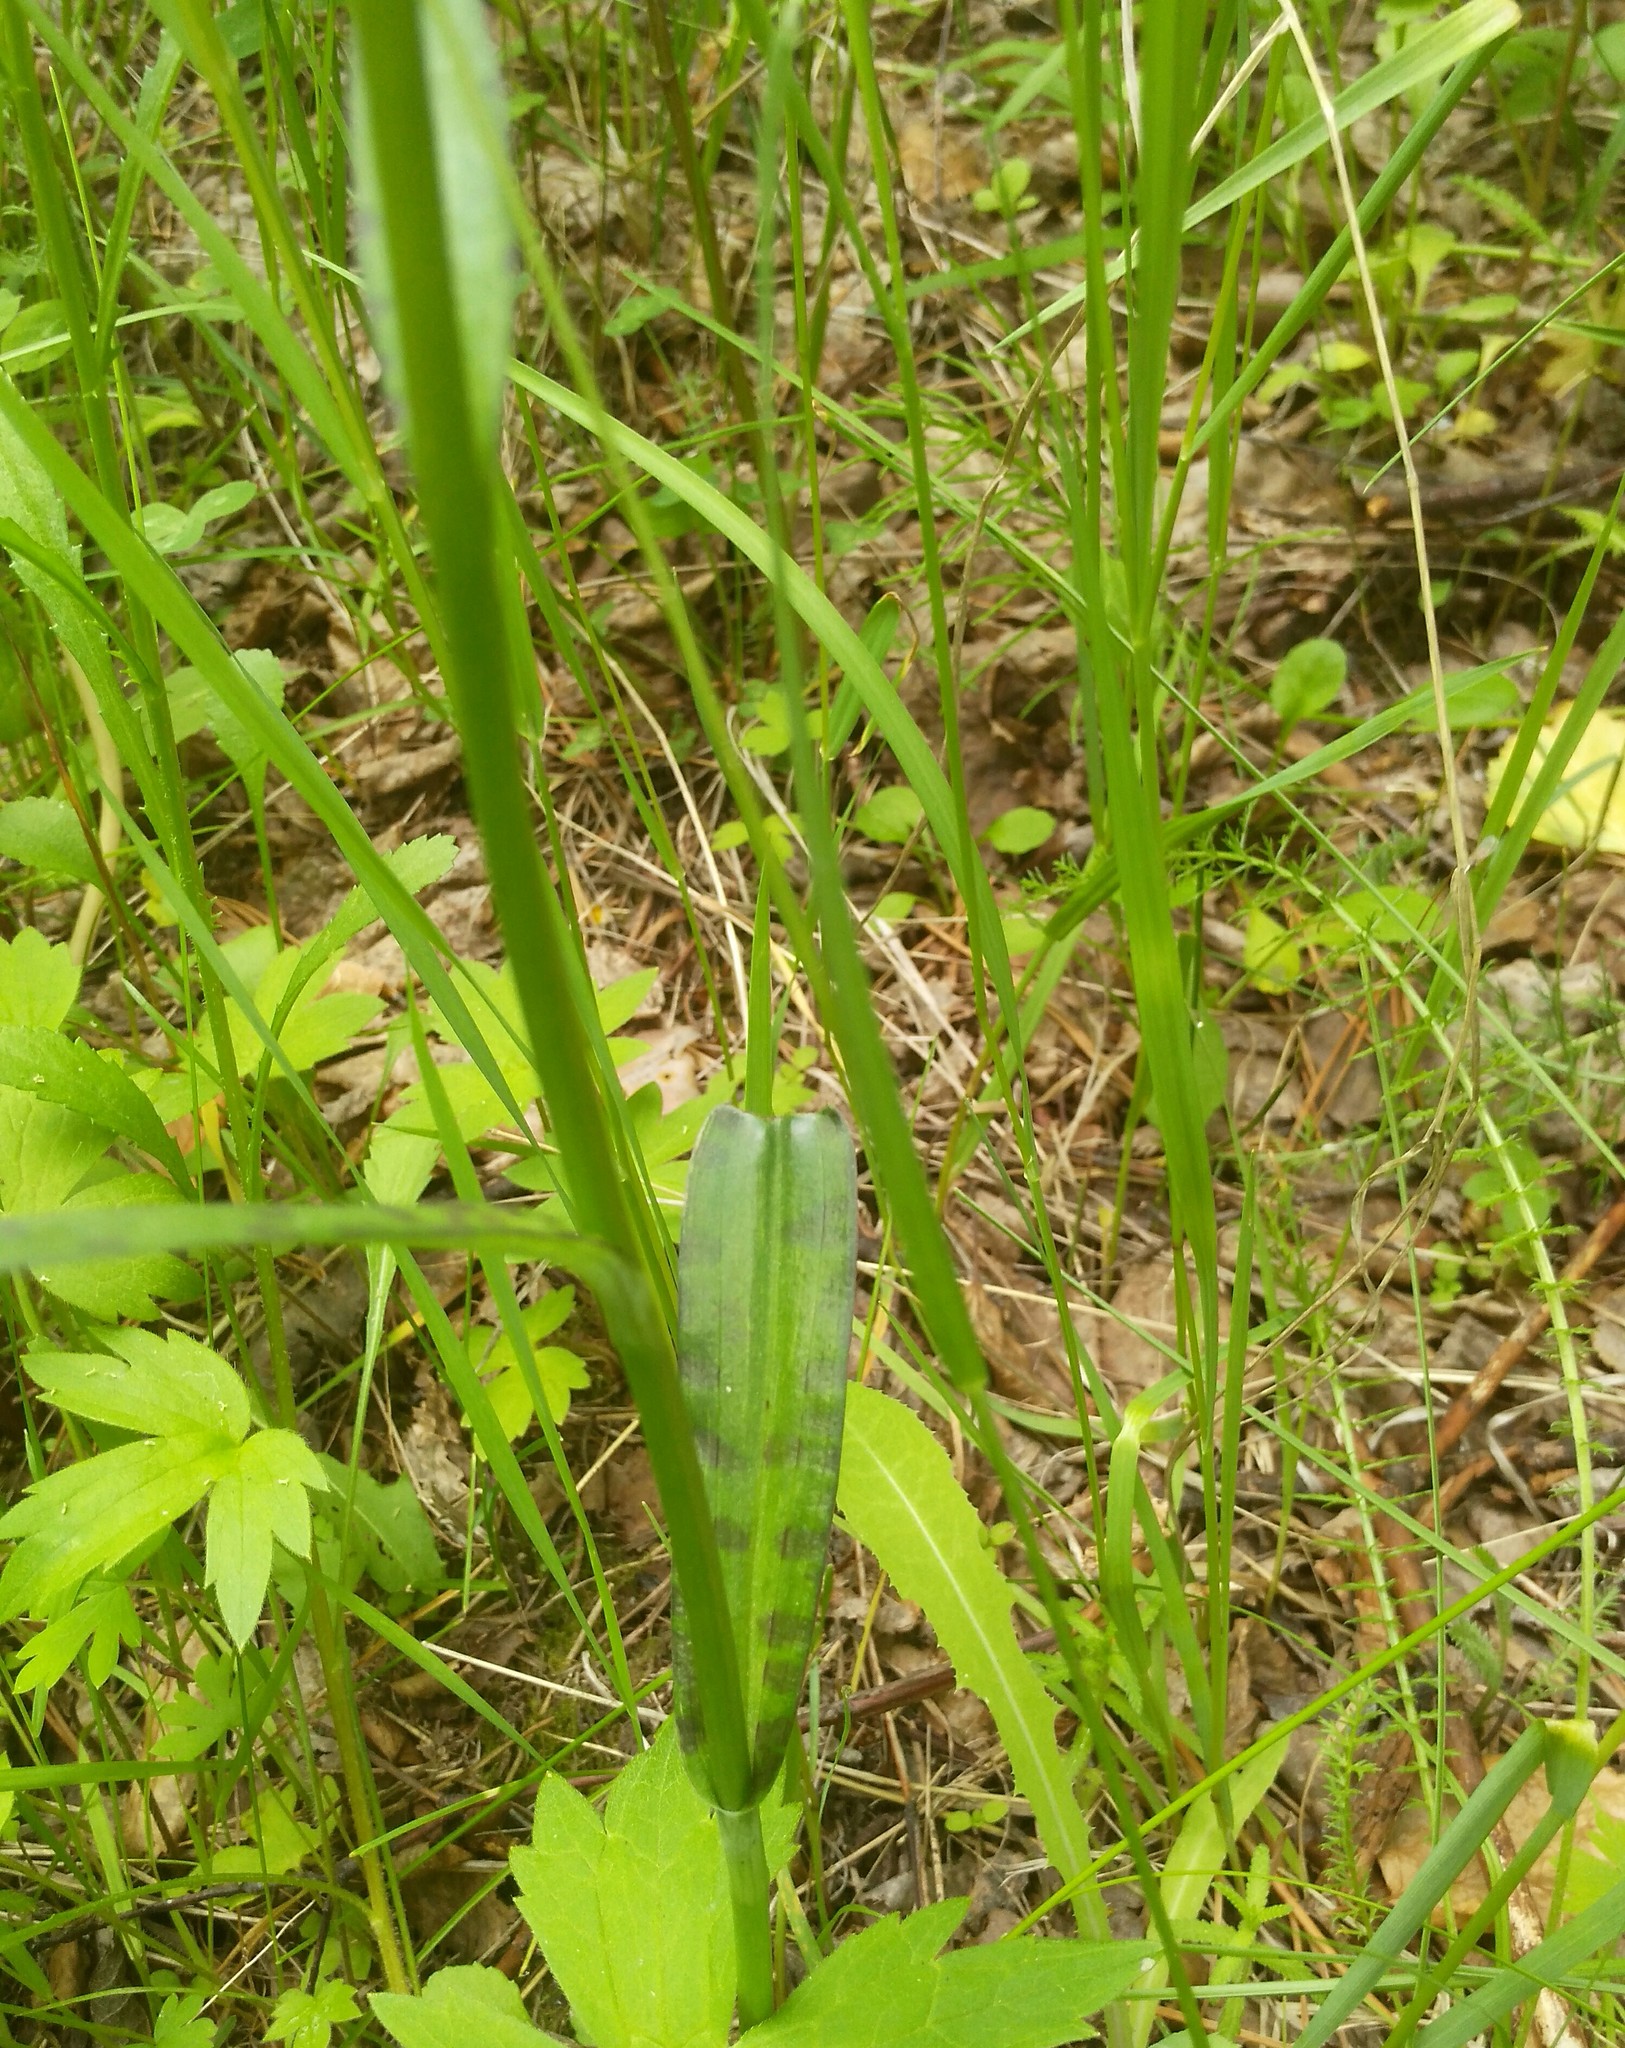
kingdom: Plantae
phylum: Tracheophyta
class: Liliopsida
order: Asparagales
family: Orchidaceae
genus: Dactylorhiza
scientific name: Dactylorhiza maculata
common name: Heath spotted-orchid
